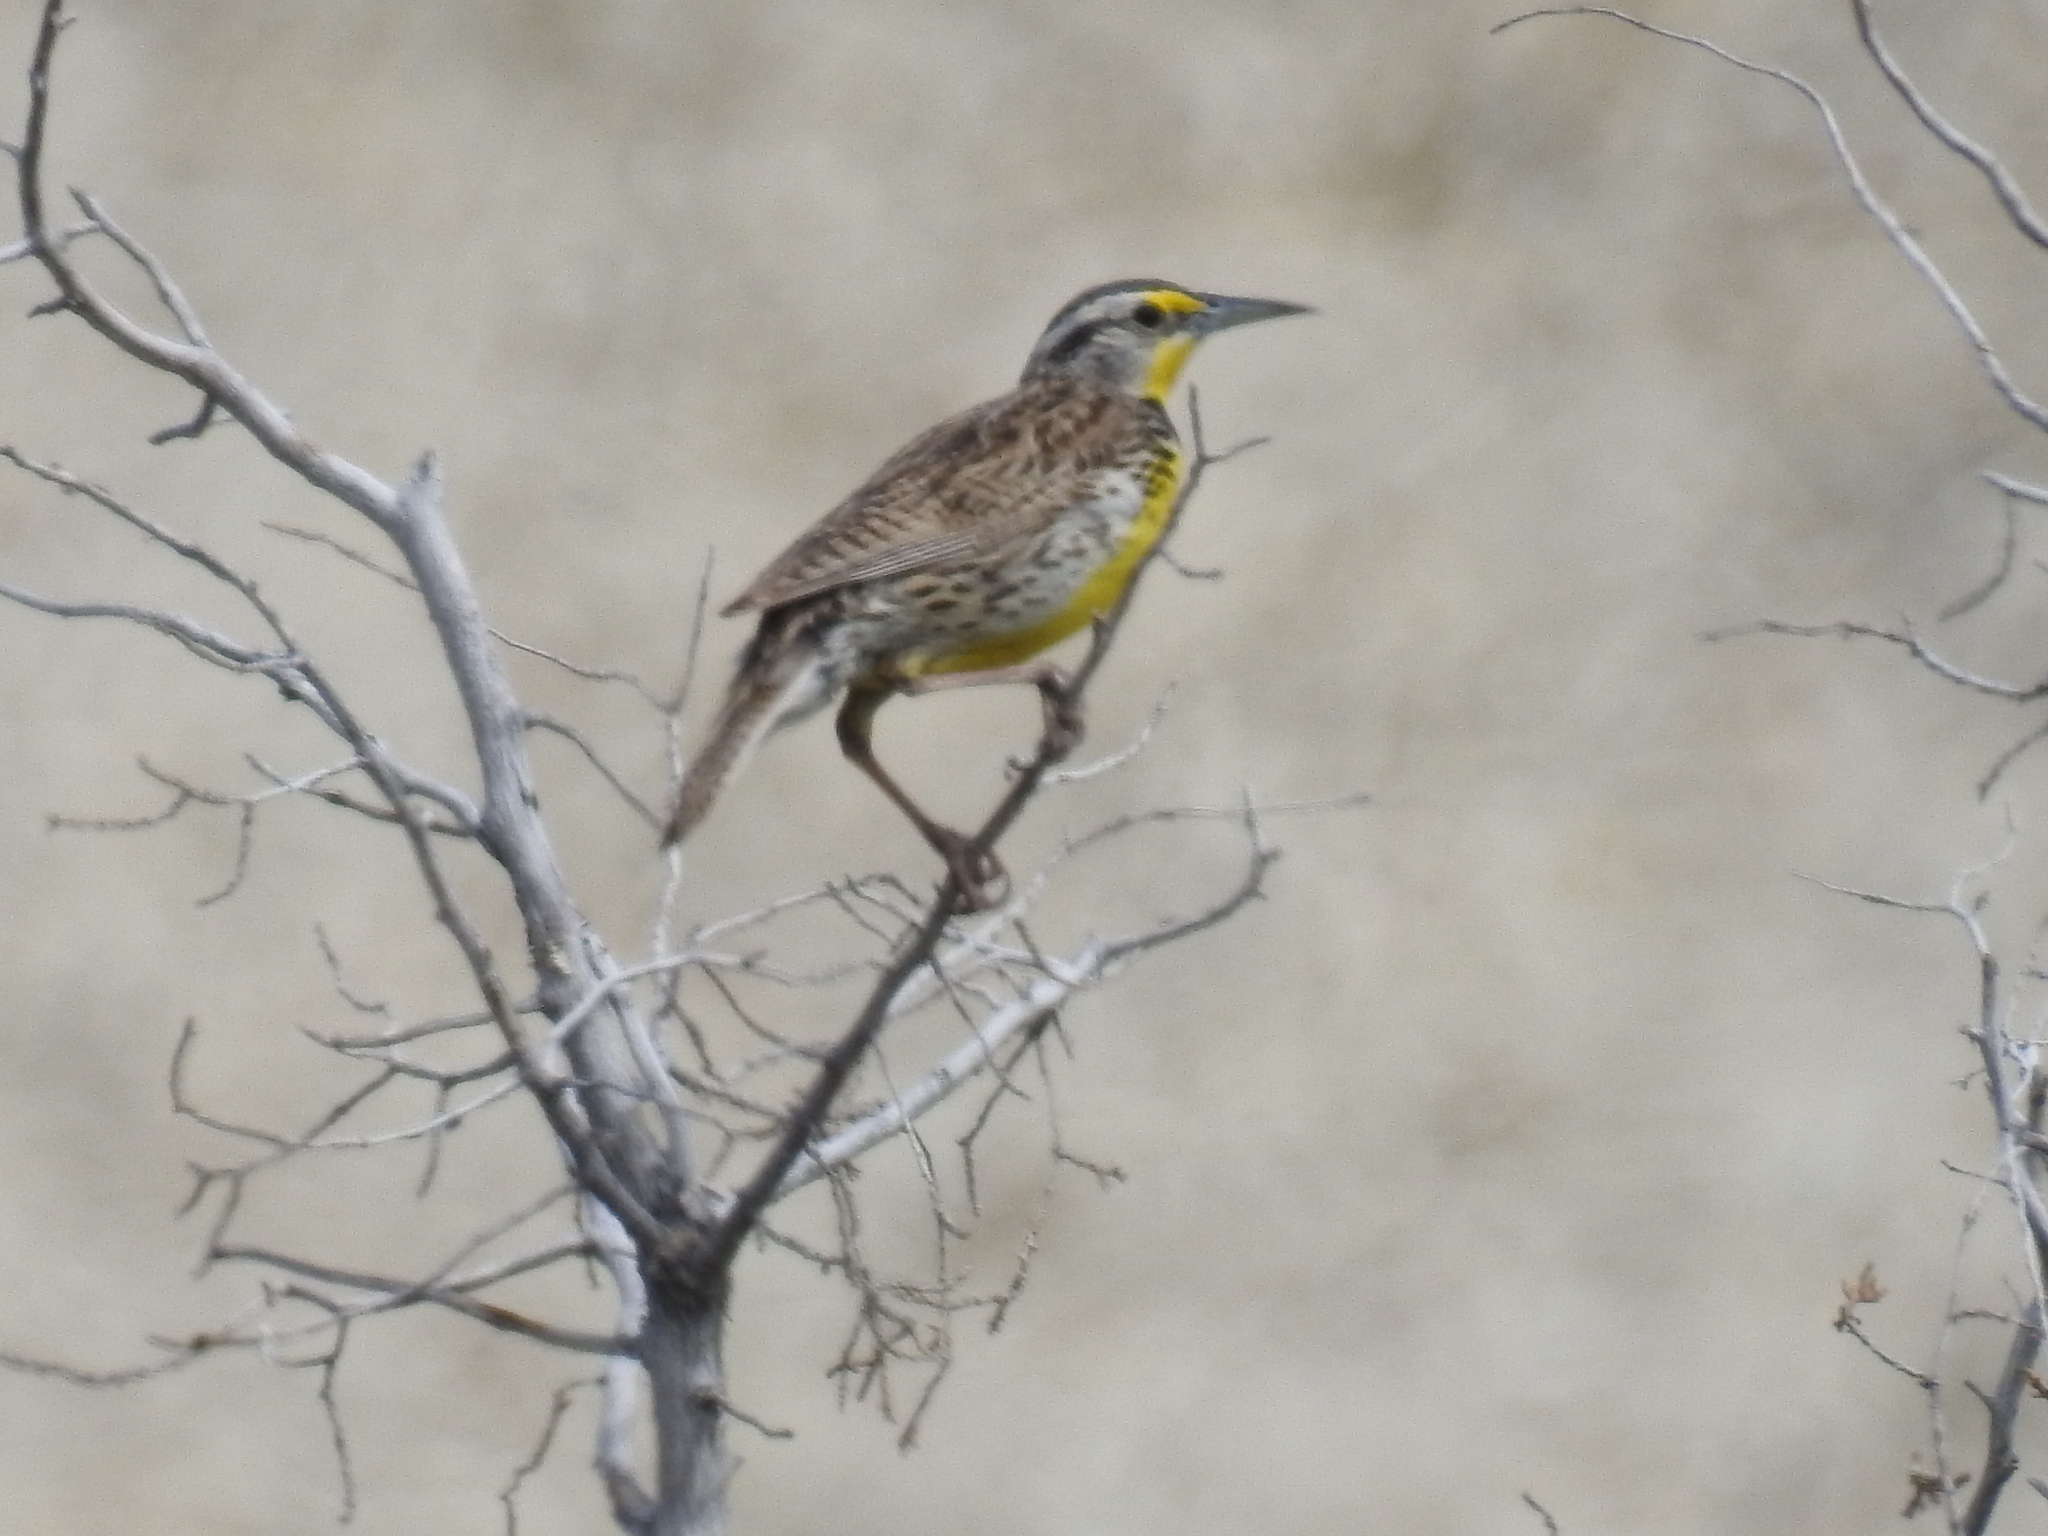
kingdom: Animalia
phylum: Chordata
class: Aves
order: Passeriformes
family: Icteridae
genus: Sturnella
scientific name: Sturnella neglecta
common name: Western meadowlark
